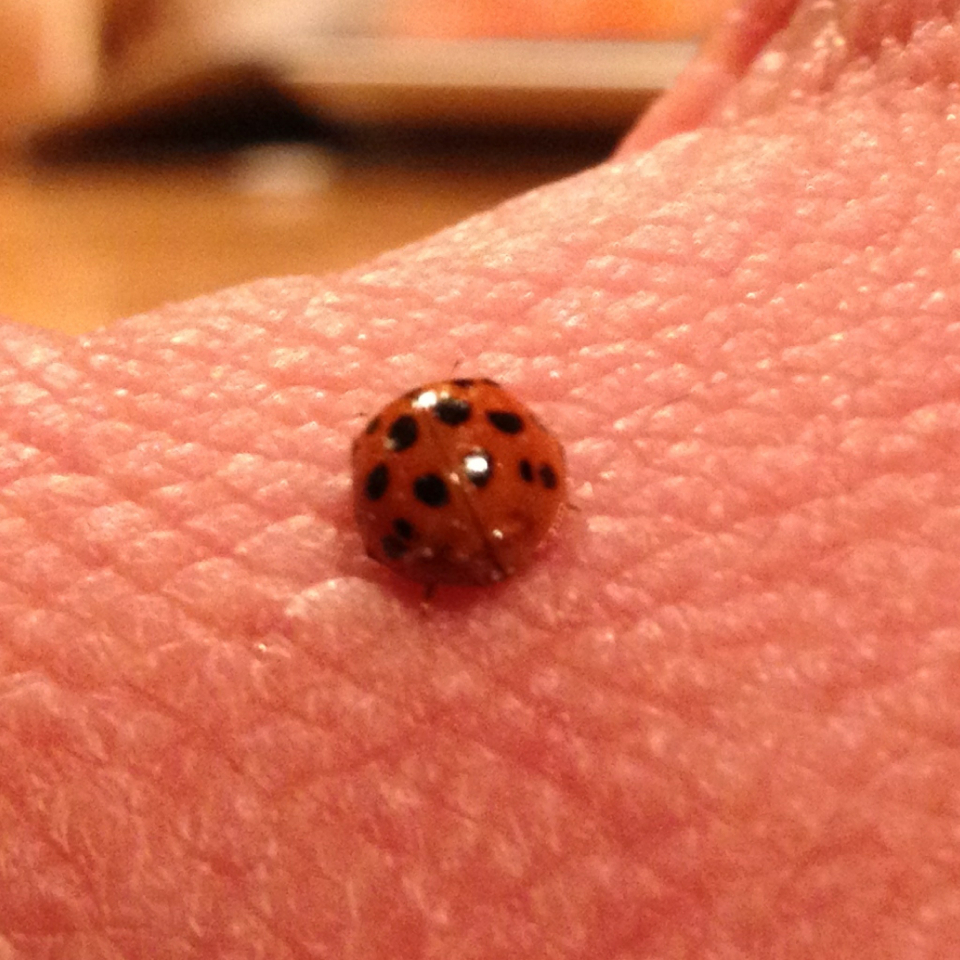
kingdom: Animalia
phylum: Arthropoda
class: Insecta
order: Coleoptera
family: Coccinellidae
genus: Harmonia
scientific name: Harmonia axyridis
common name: Harlequin ladybird
